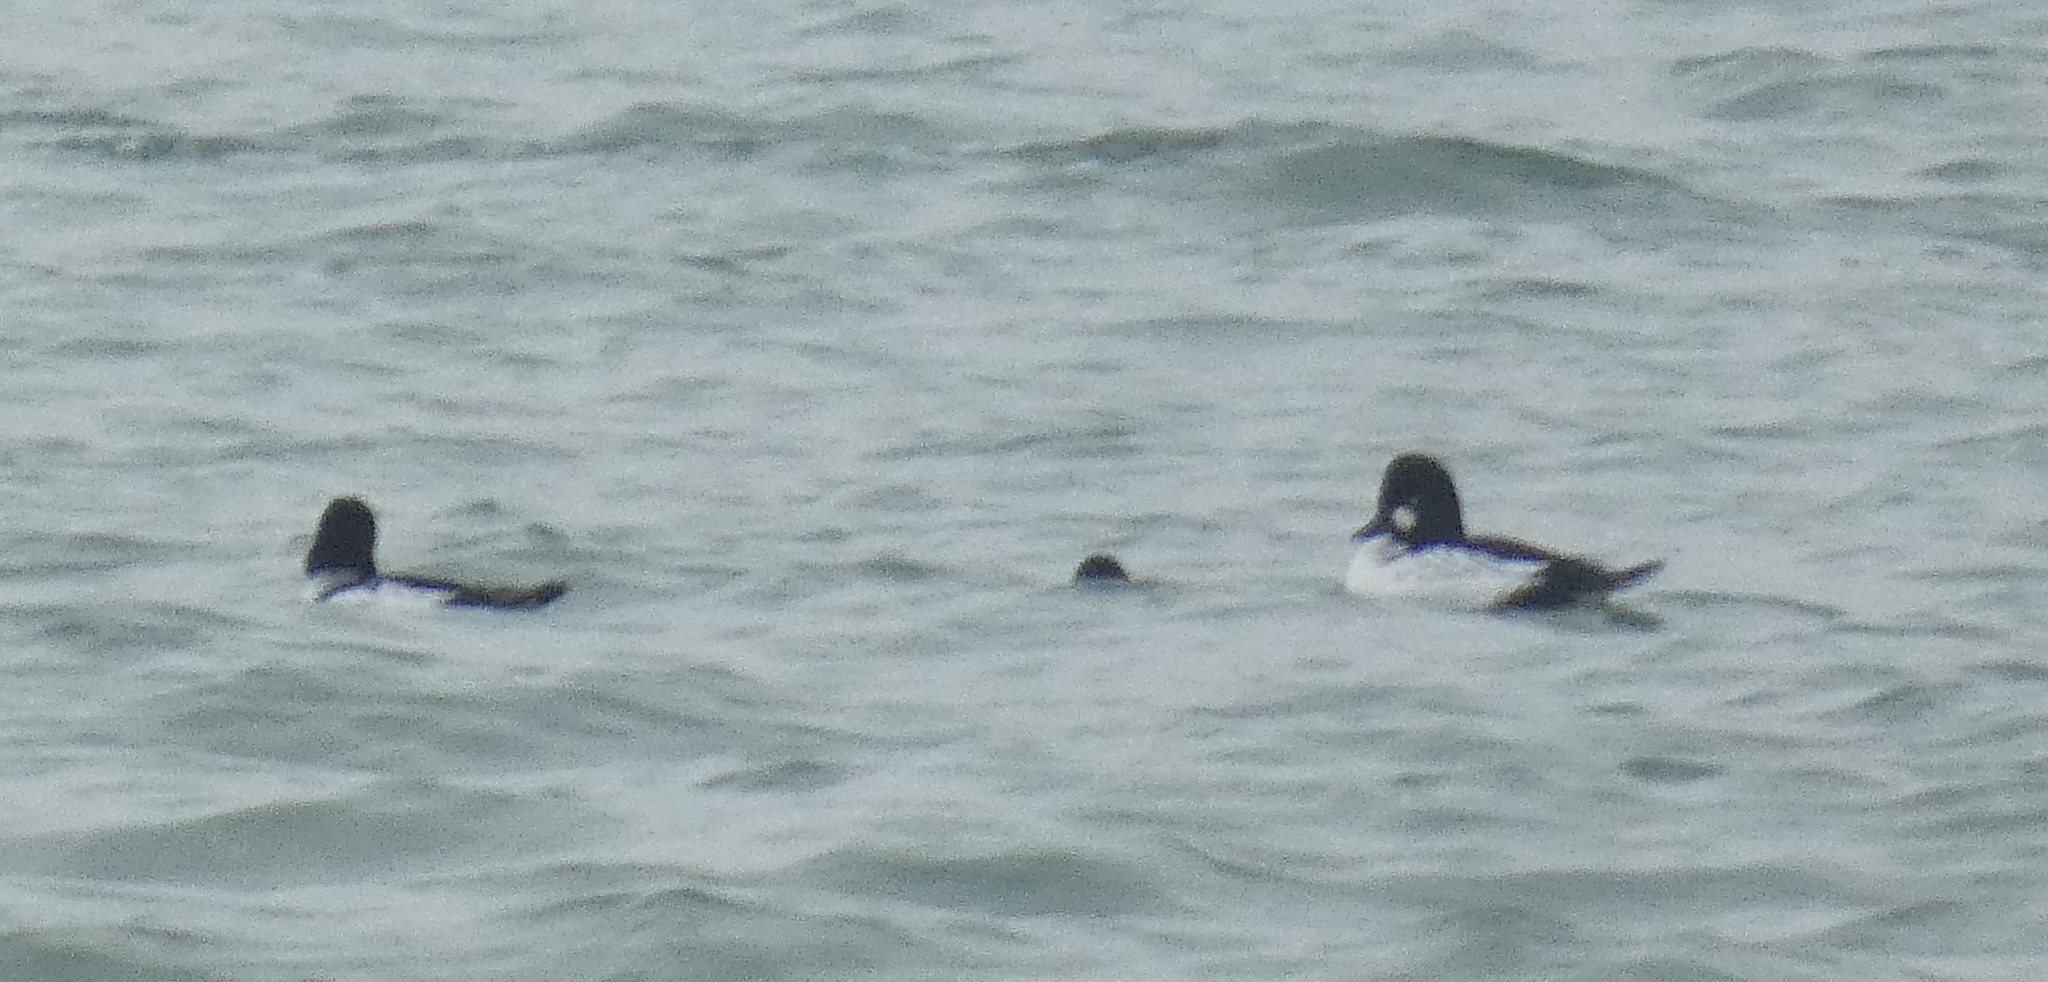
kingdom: Animalia
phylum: Chordata
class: Aves
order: Anseriformes
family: Anatidae
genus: Bucephala
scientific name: Bucephala clangula
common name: Common goldeneye
